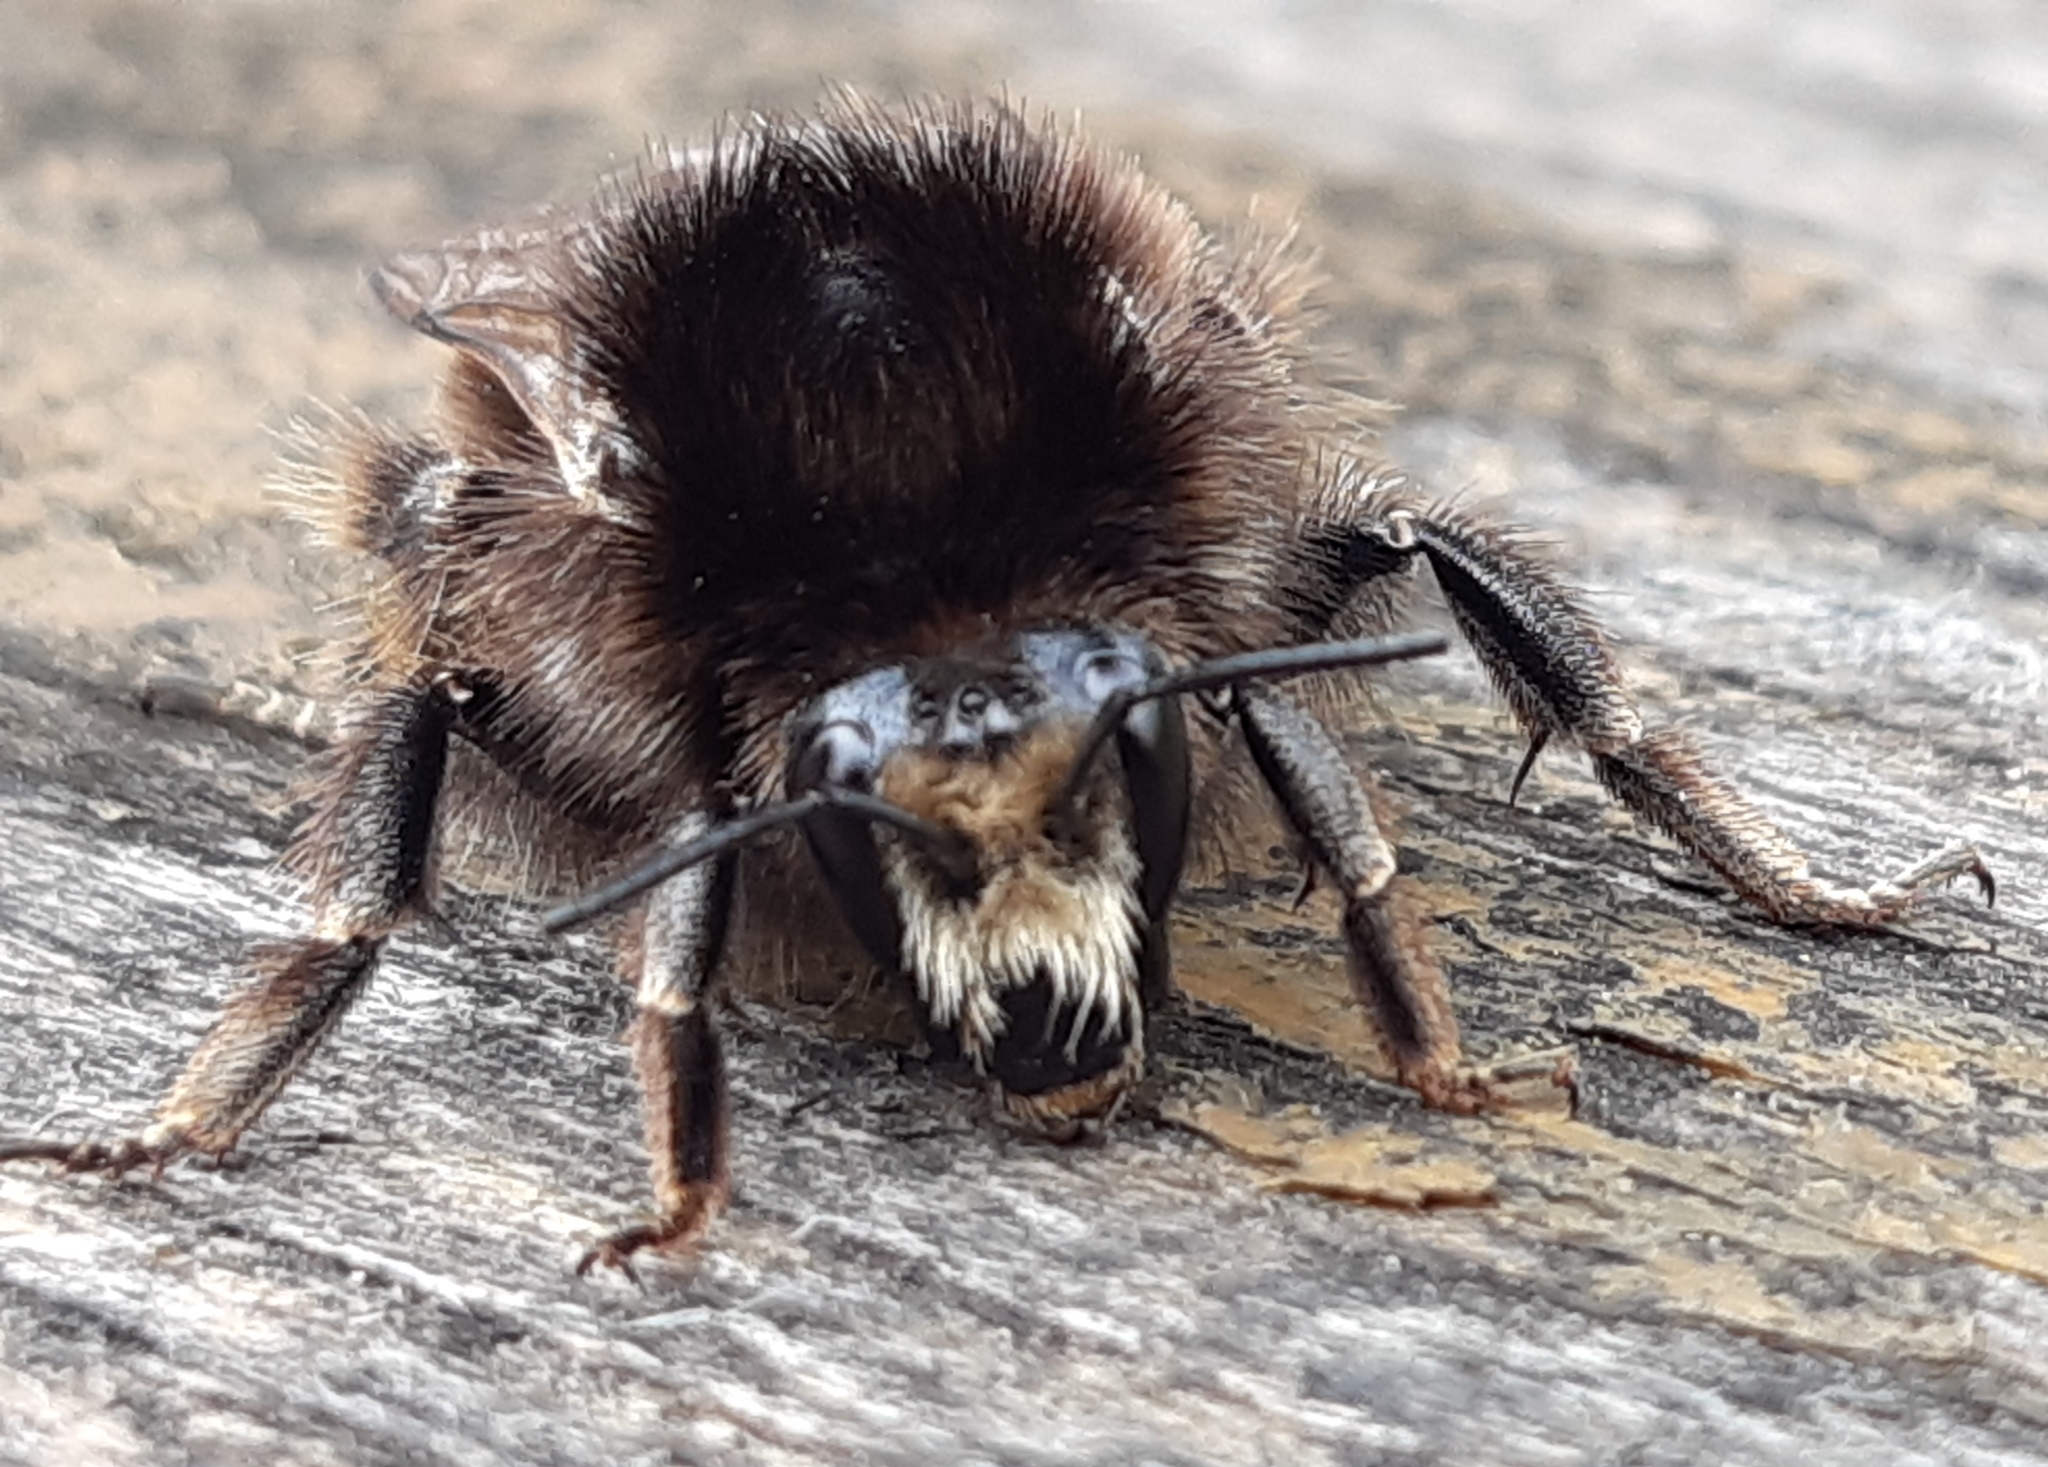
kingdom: Animalia
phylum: Arthropoda
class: Insecta
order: Hymenoptera
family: Apidae
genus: Bombus
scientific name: Bombus humilis
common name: Brown-banded carder-bee
